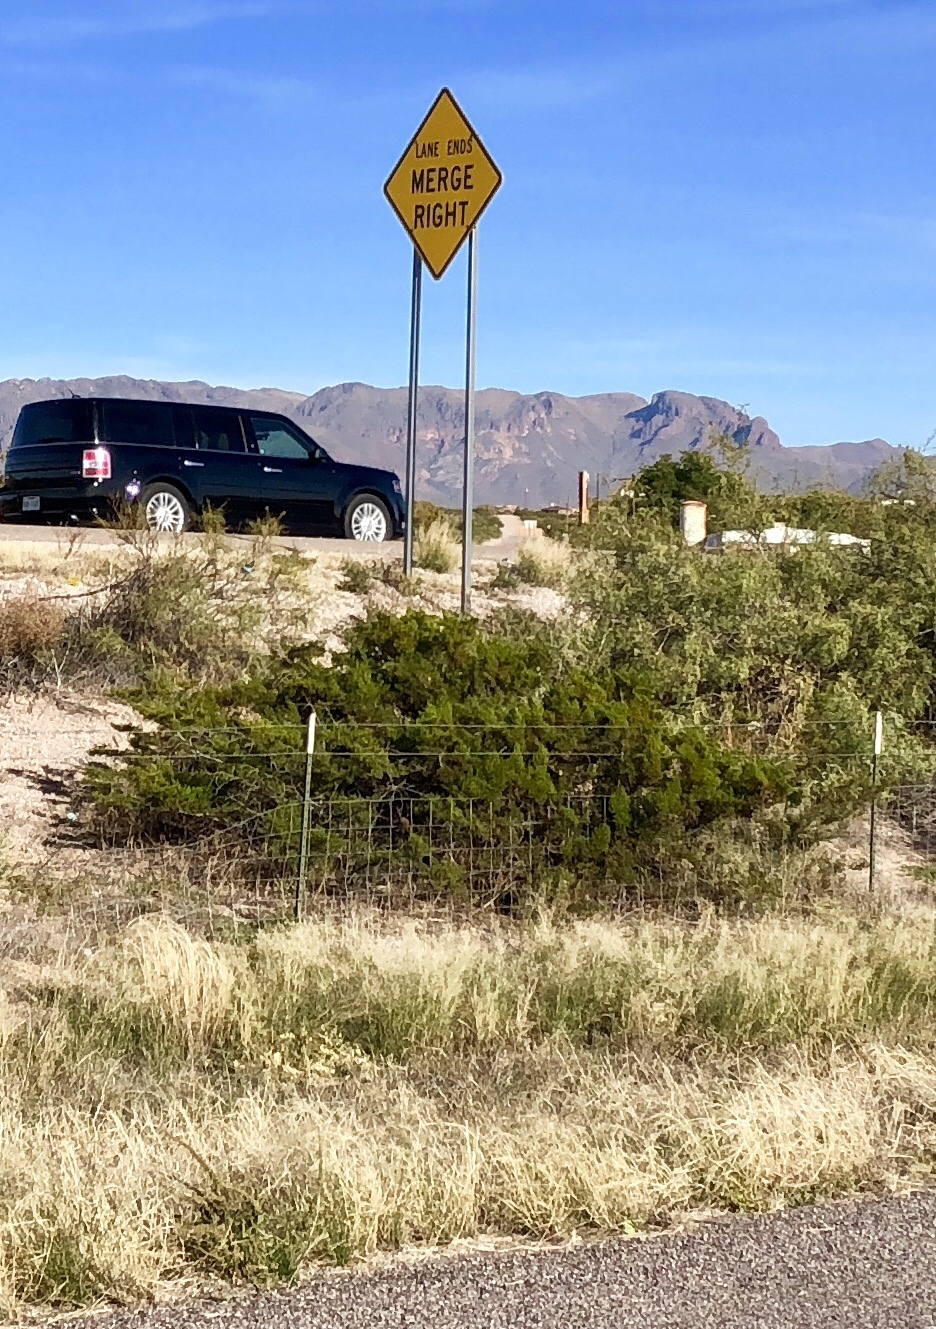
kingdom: Plantae
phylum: Tracheophyta
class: Magnoliopsida
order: Zygophyllales
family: Zygophyllaceae
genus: Larrea
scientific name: Larrea tridentata
